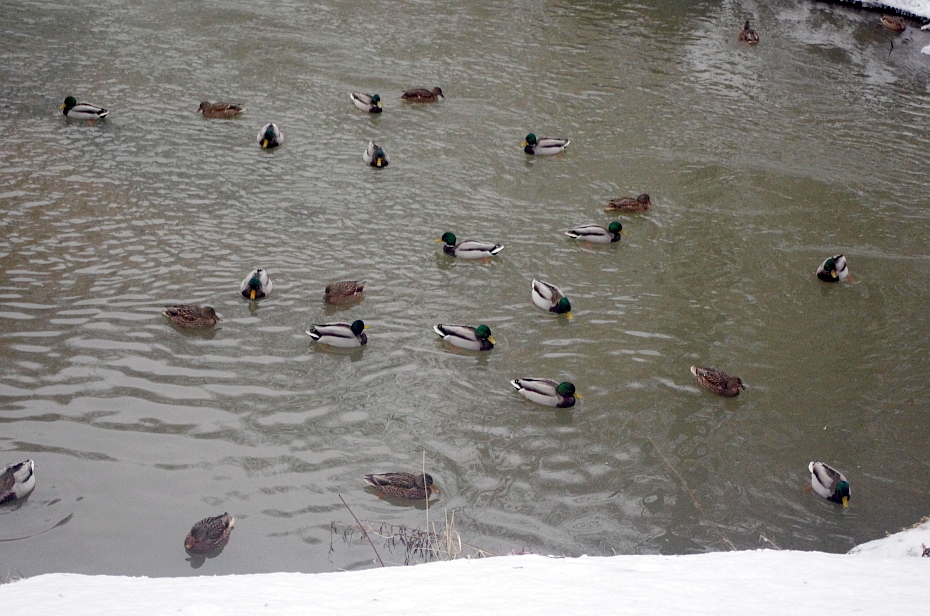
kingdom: Animalia
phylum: Chordata
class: Aves
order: Anseriformes
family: Anatidae
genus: Anas
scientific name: Anas platyrhynchos
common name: Mallard
